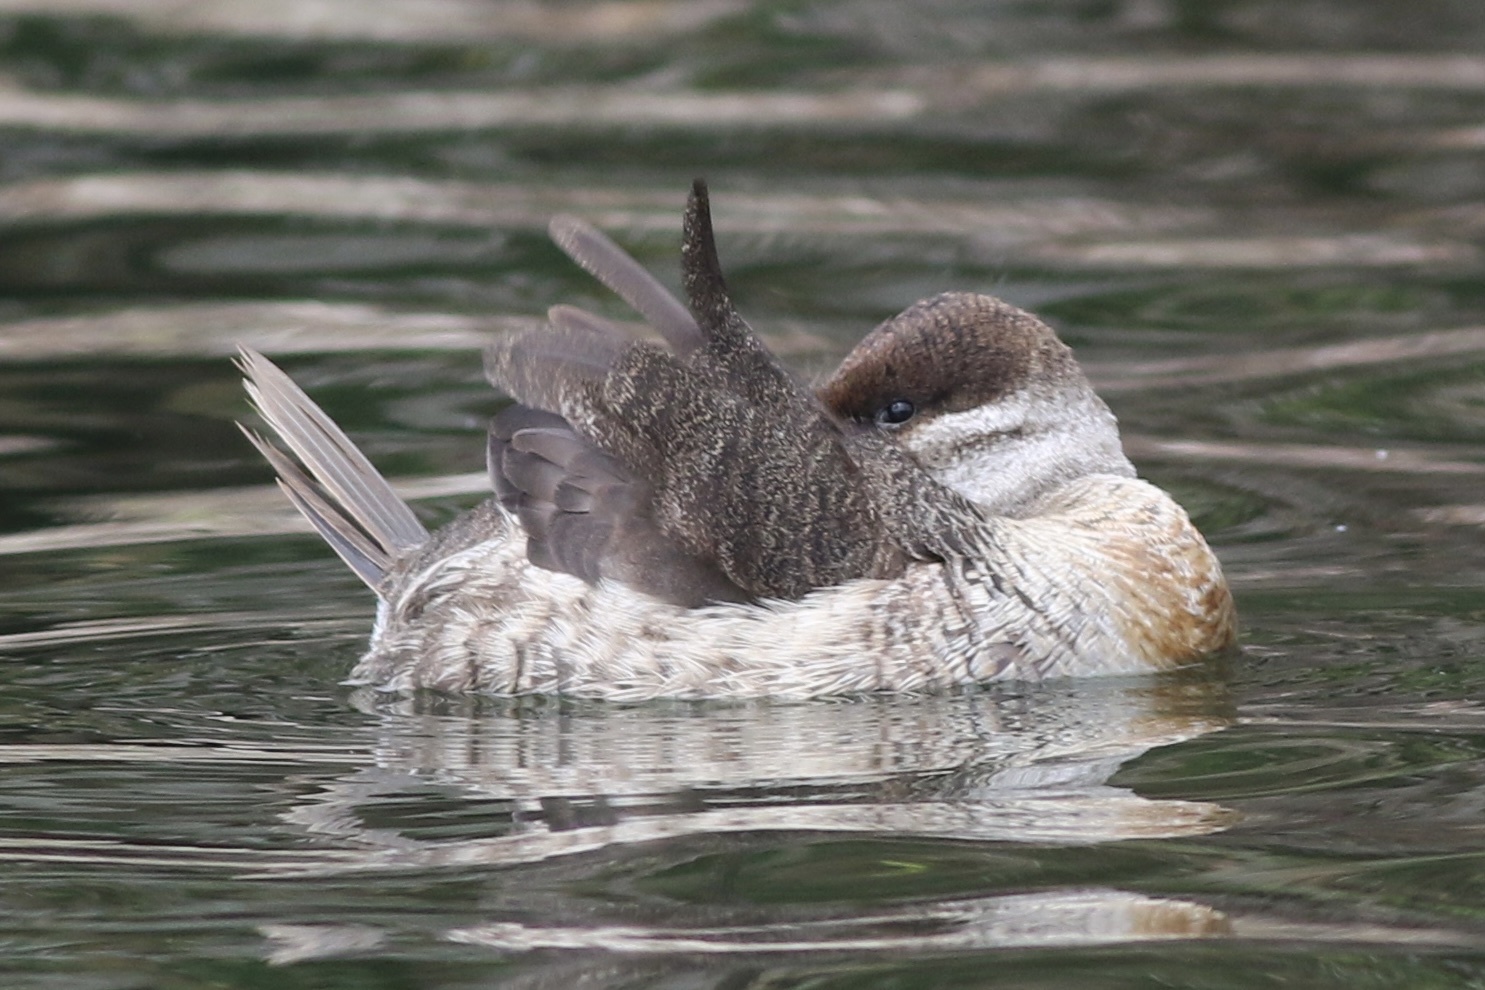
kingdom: Animalia
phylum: Chordata
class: Aves
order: Anseriformes
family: Anatidae
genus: Oxyura
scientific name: Oxyura jamaicensis
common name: Ruddy duck
